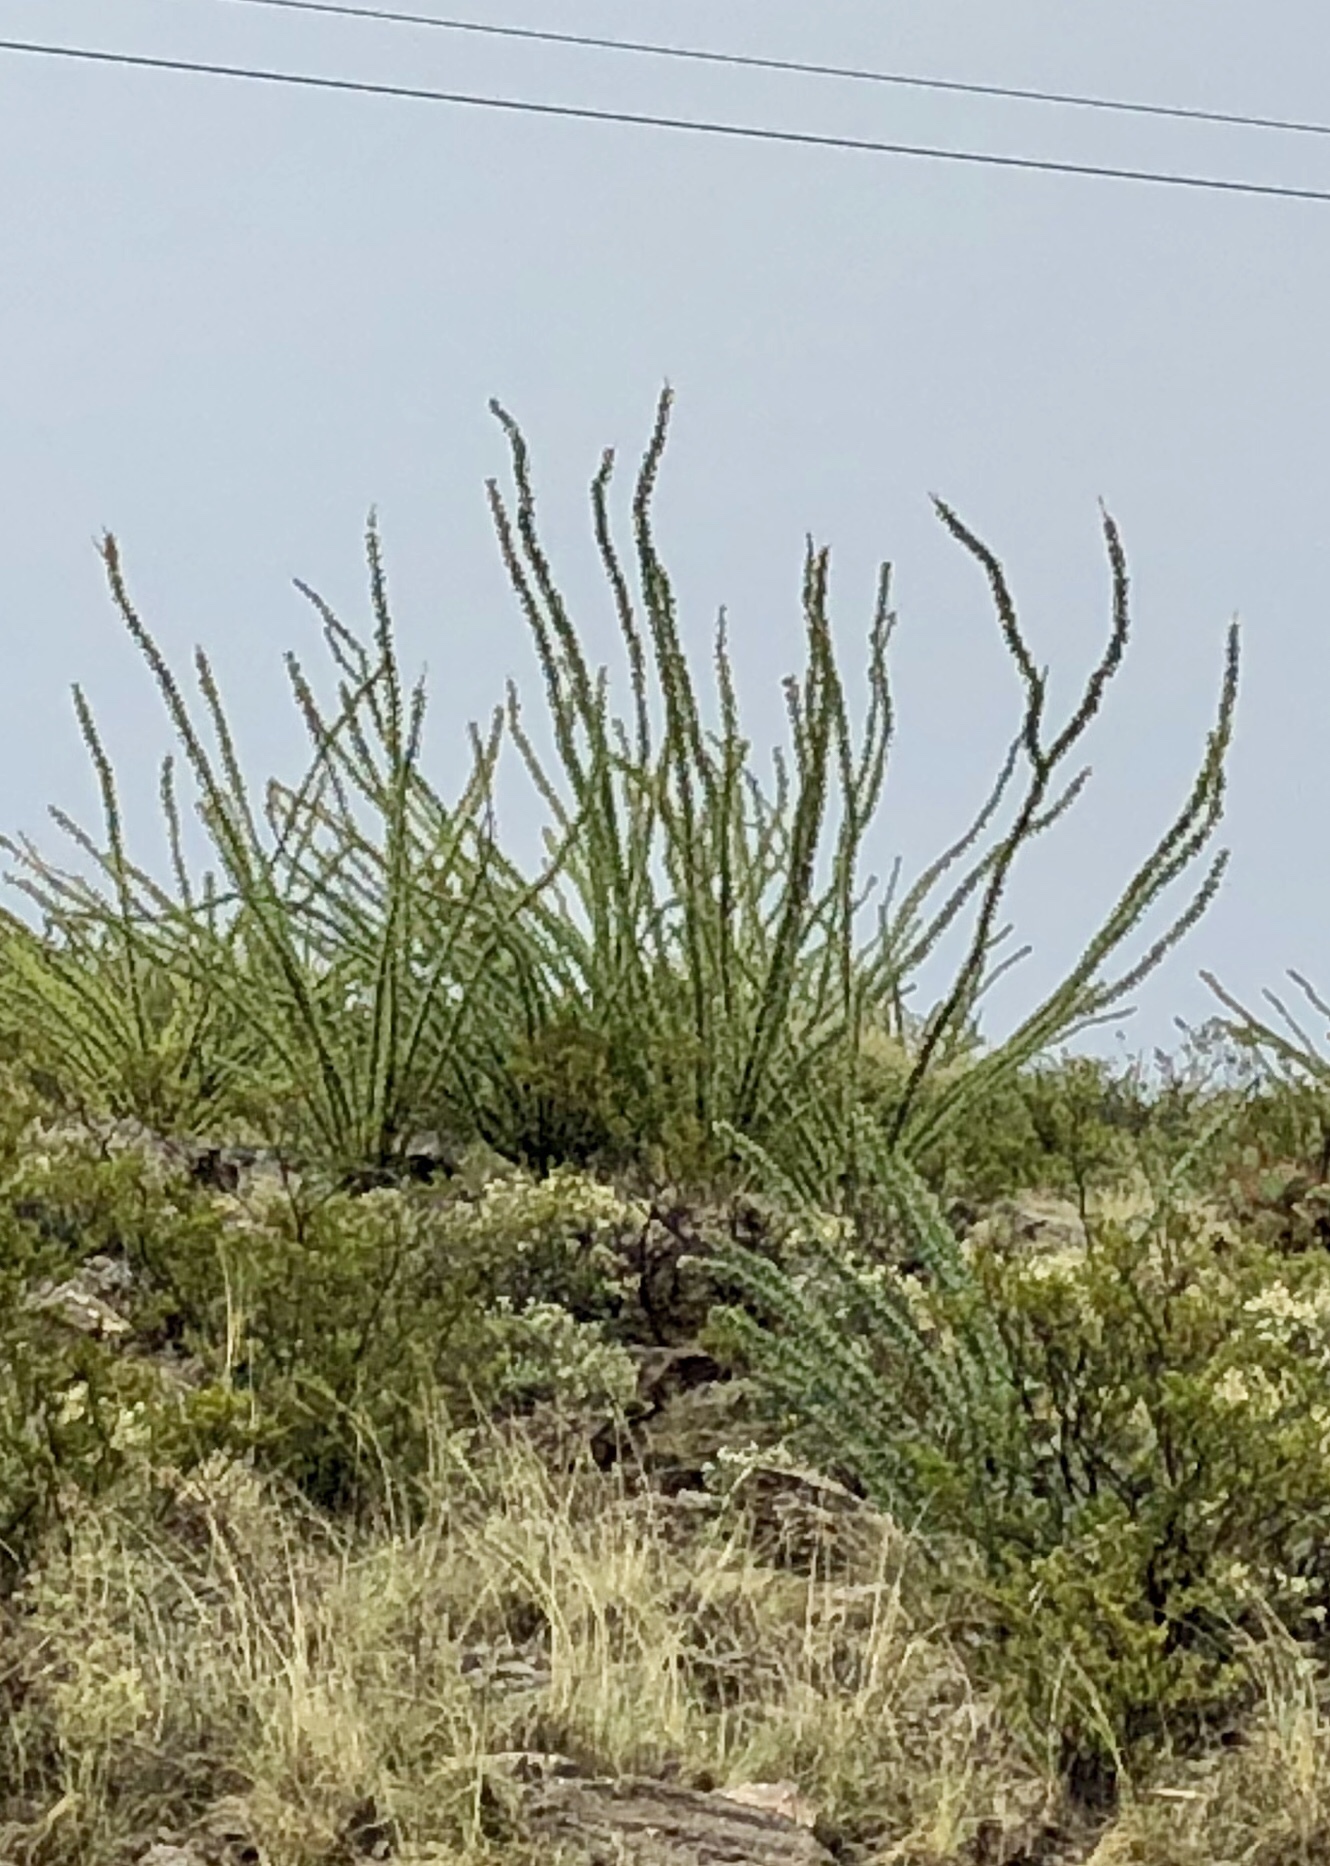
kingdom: Plantae
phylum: Tracheophyta
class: Magnoliopsida
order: Ericales
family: Fouquieriaceae
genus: Fouquieria
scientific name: Fouquieria splendens
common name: Vine-cactus
